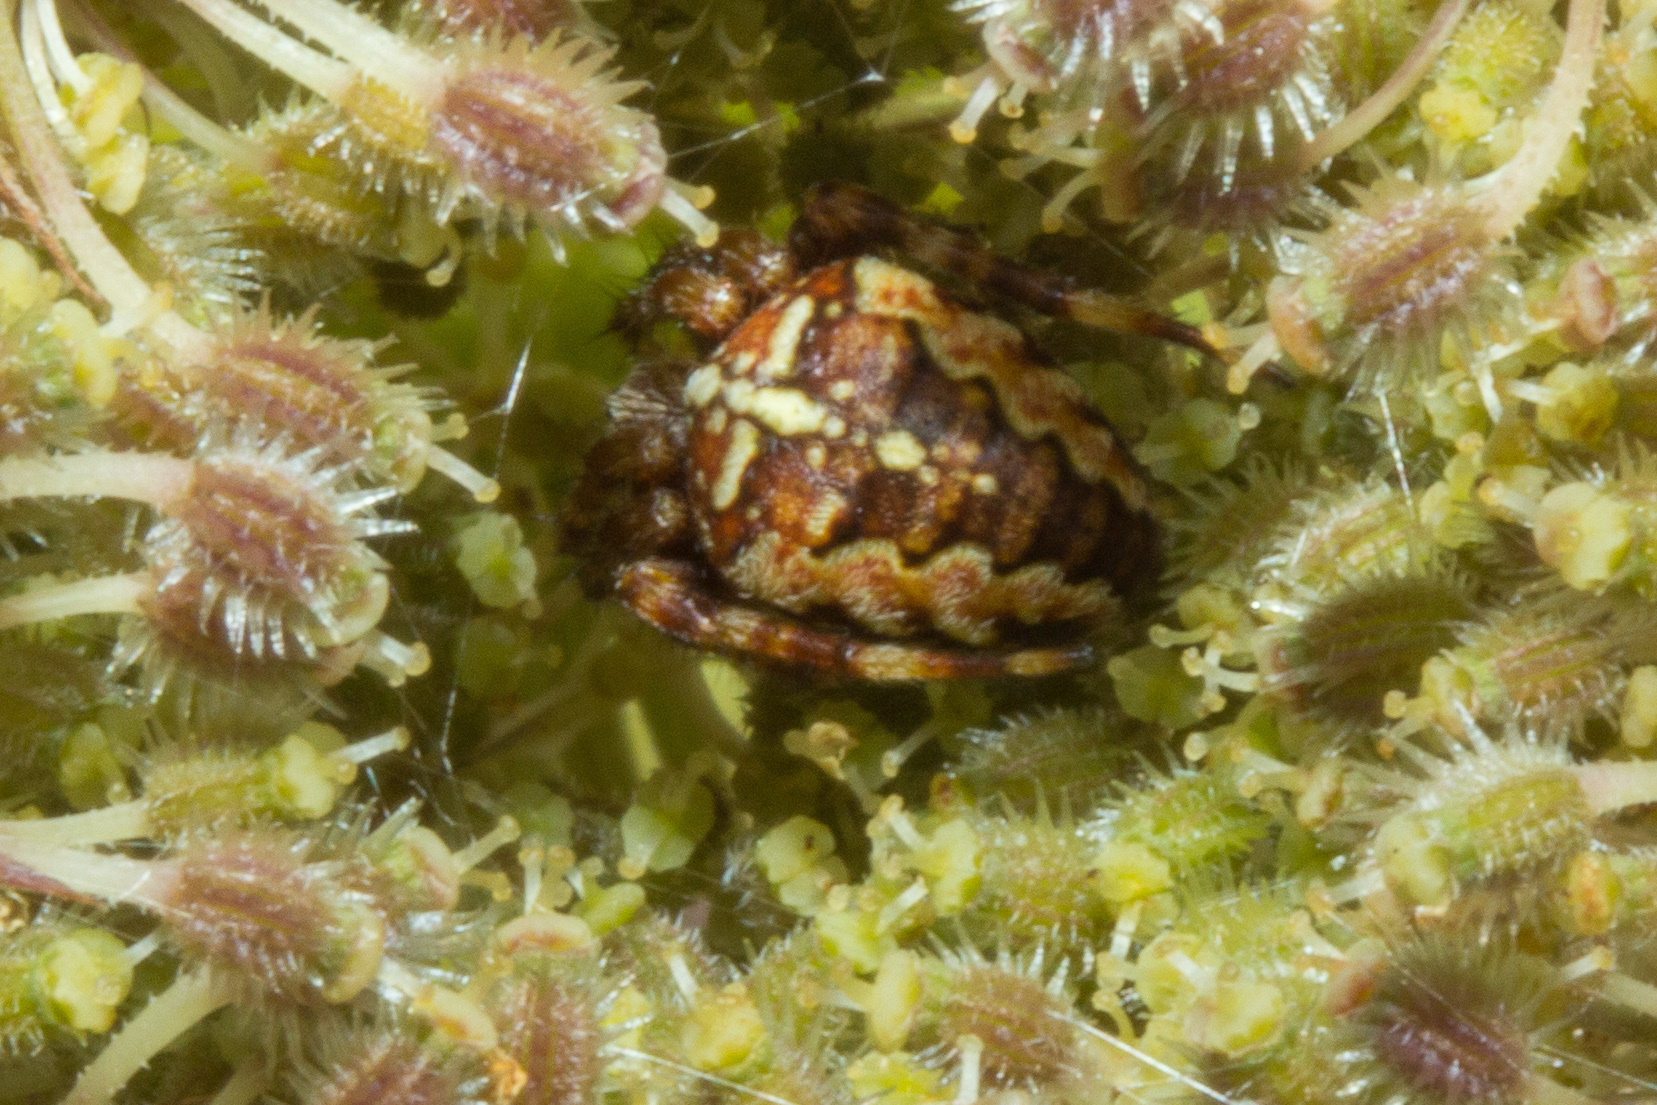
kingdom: Animalia
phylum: Arthropoda
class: Arachnida
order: Araneae
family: Araneidae
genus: Araneus
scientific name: Araneus diadematus
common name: Cross orbweaver
